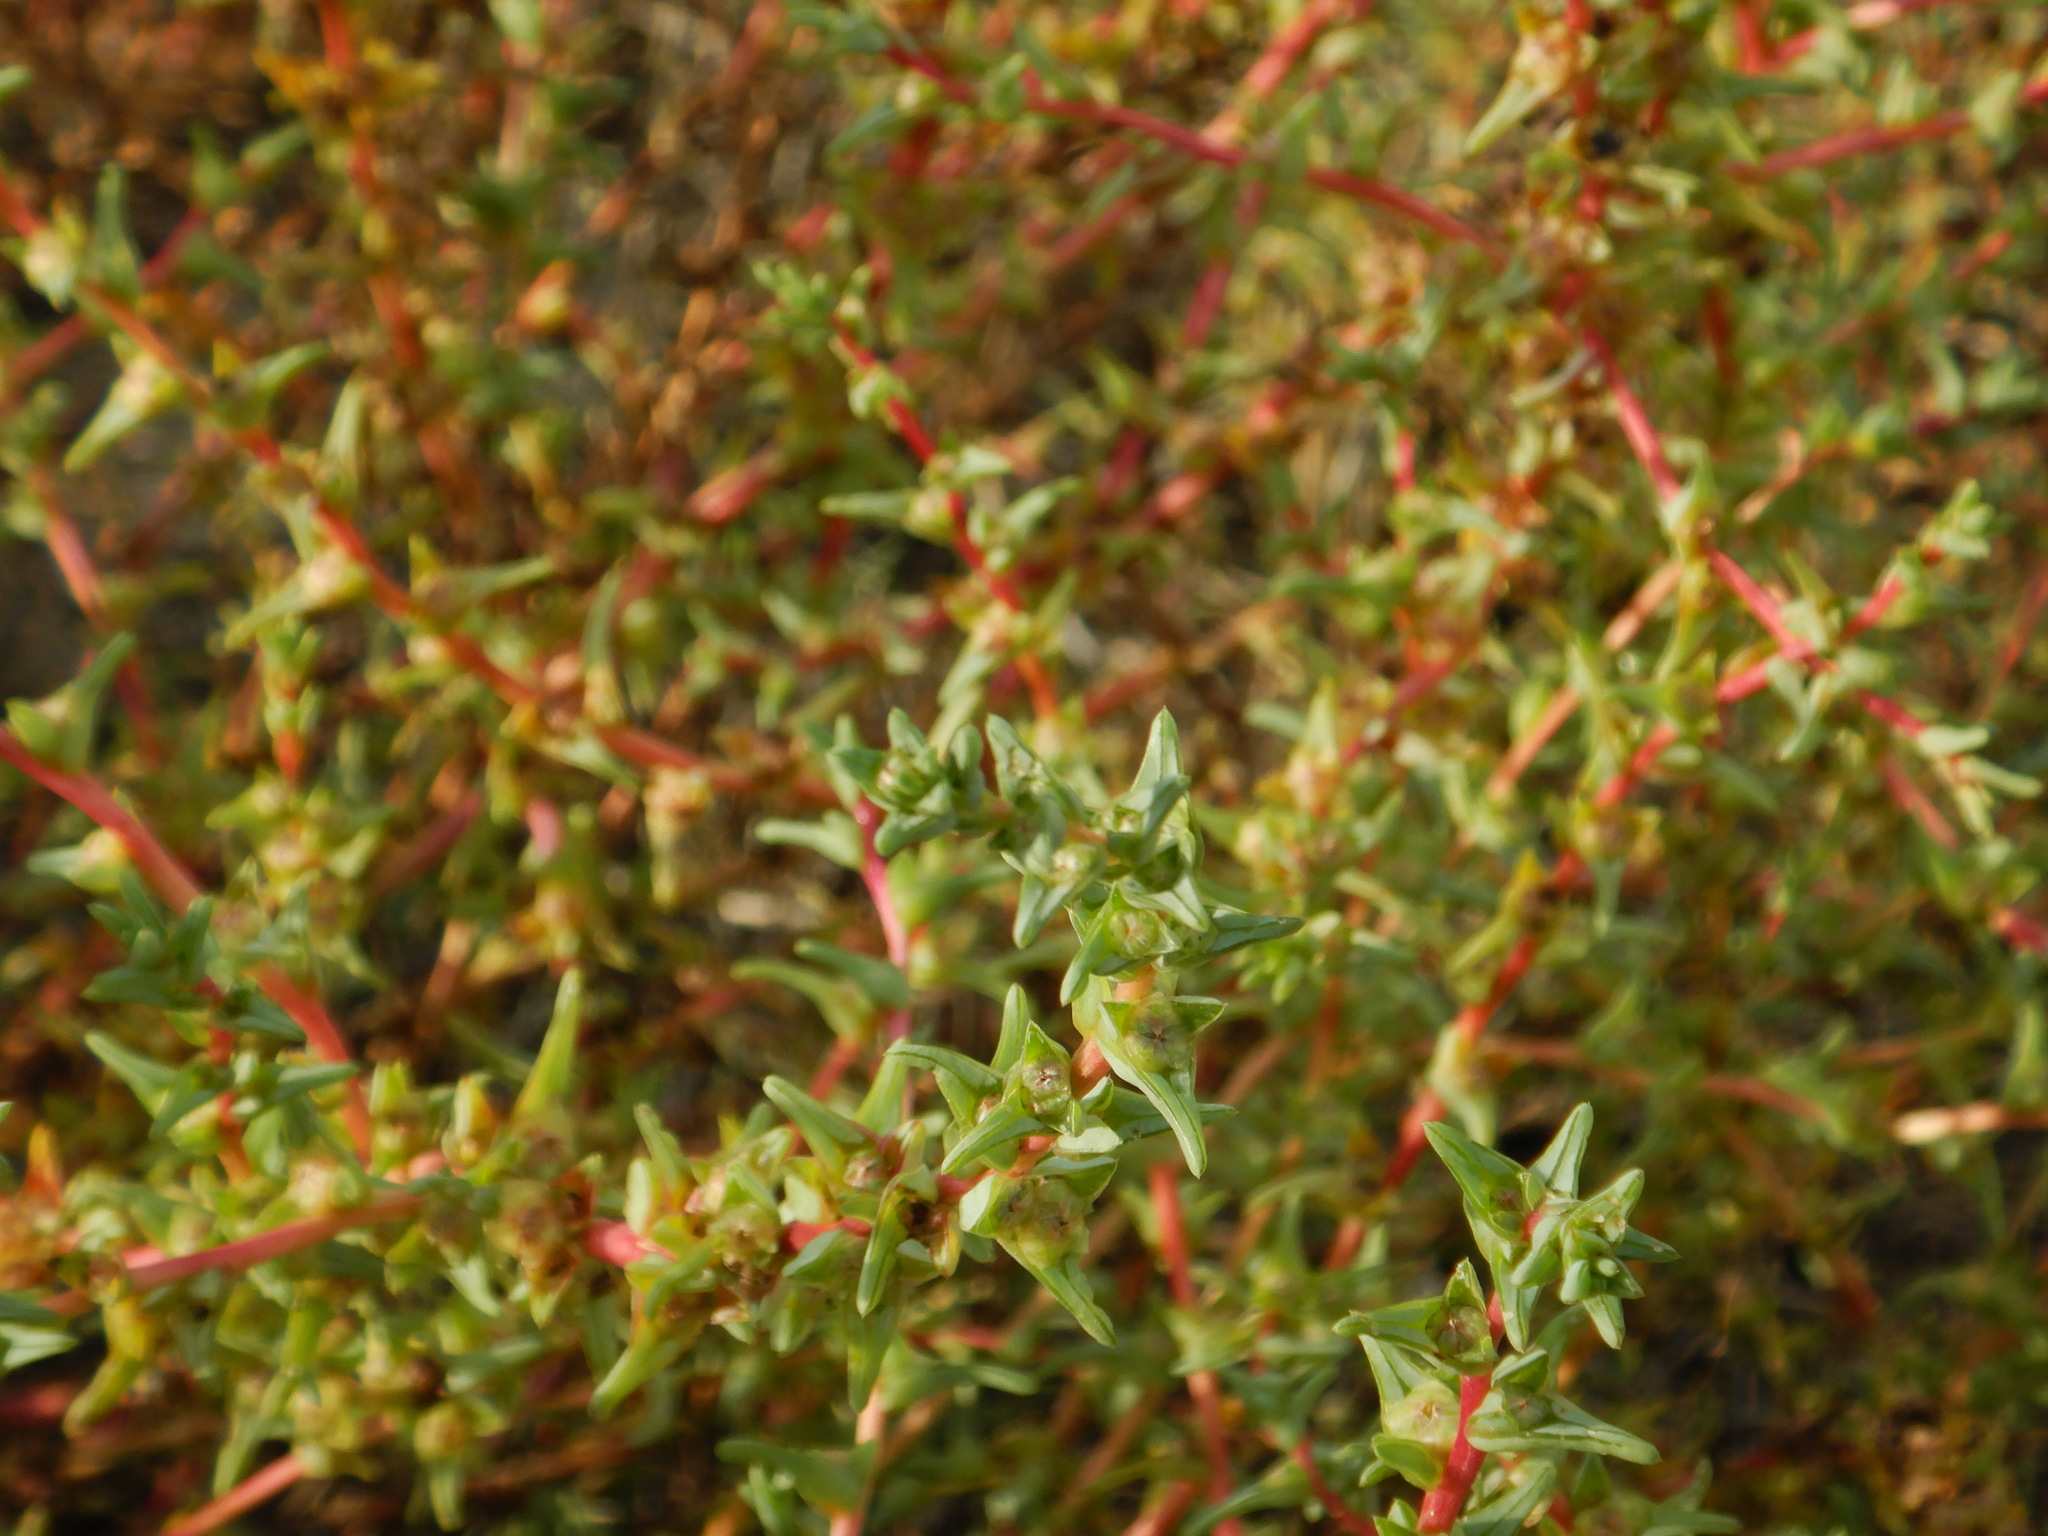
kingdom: Plantae
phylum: Tracheophyta
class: Magnoliopsida
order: Caryophyllales
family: Amaranthaceae
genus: Salsola
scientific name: Salsola soda
